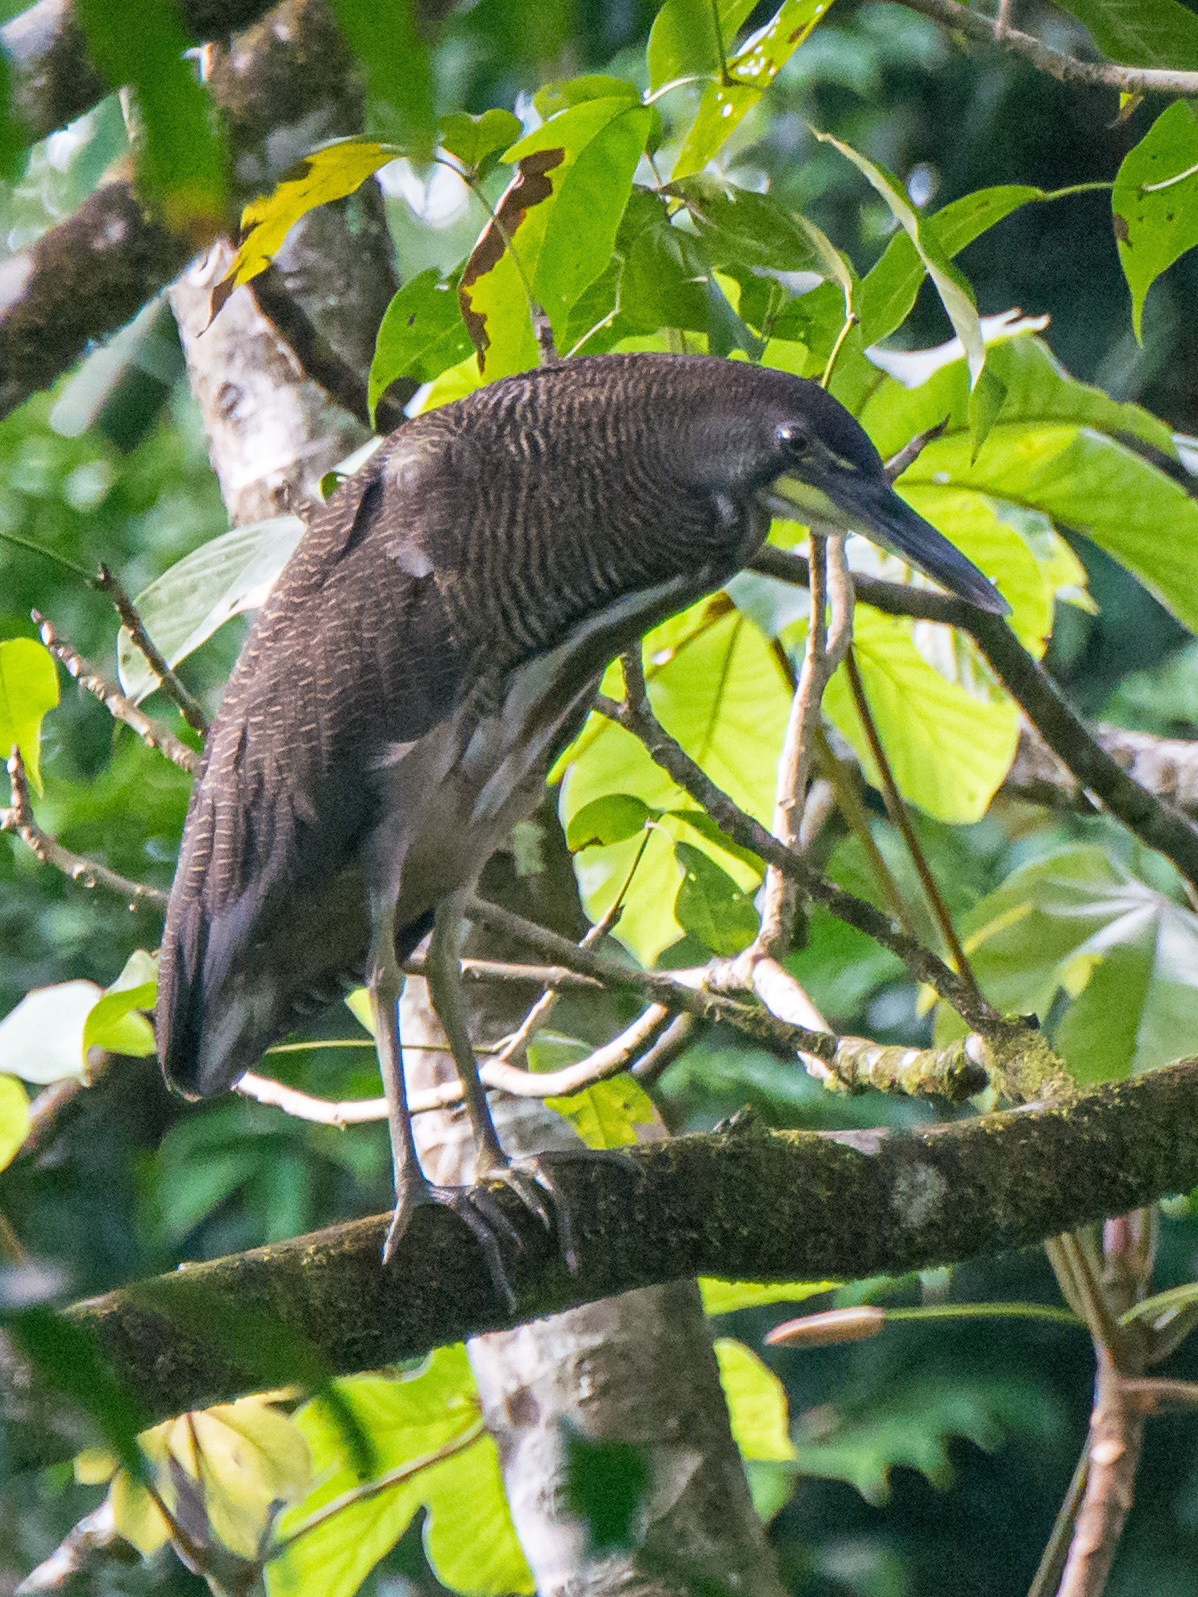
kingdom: Animalia
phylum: Chordata
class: Aves
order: Pelecaniformes
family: Ardeidae
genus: Tigrisoma
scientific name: Tigrisoma fasciatum
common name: Fasciated tiger-heron
